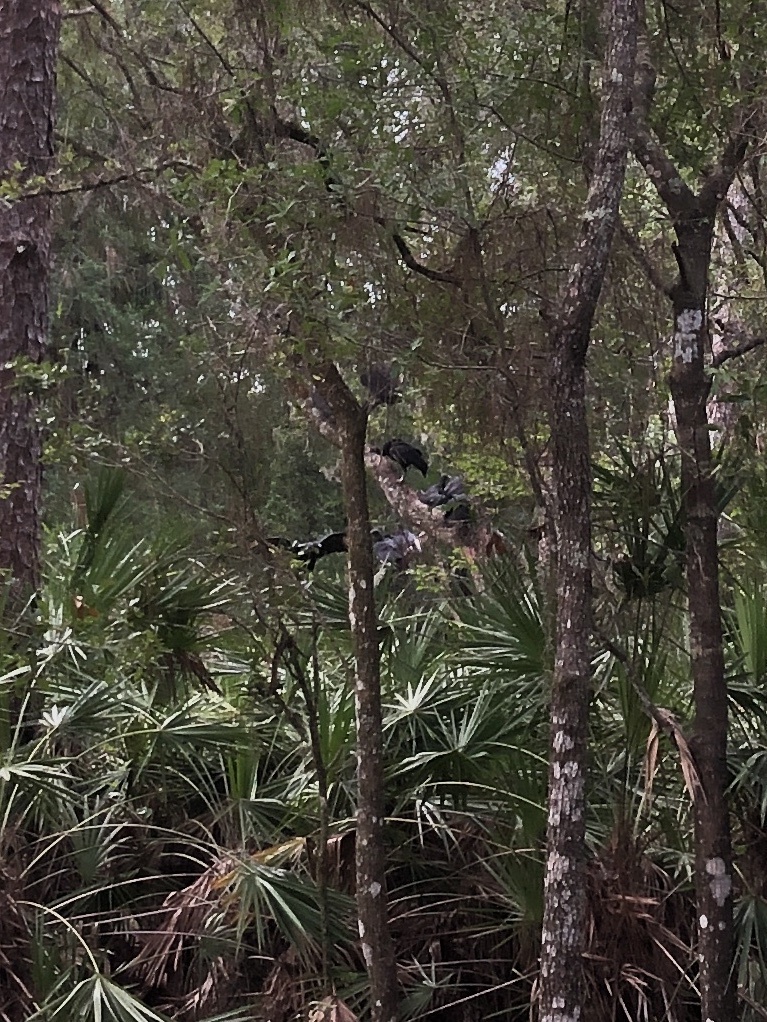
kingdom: Animalia
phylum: Chordata
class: Aves
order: Accipitriformes
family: Cathartidae
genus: Coragyps
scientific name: Coragyps atratus
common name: Black vulture
